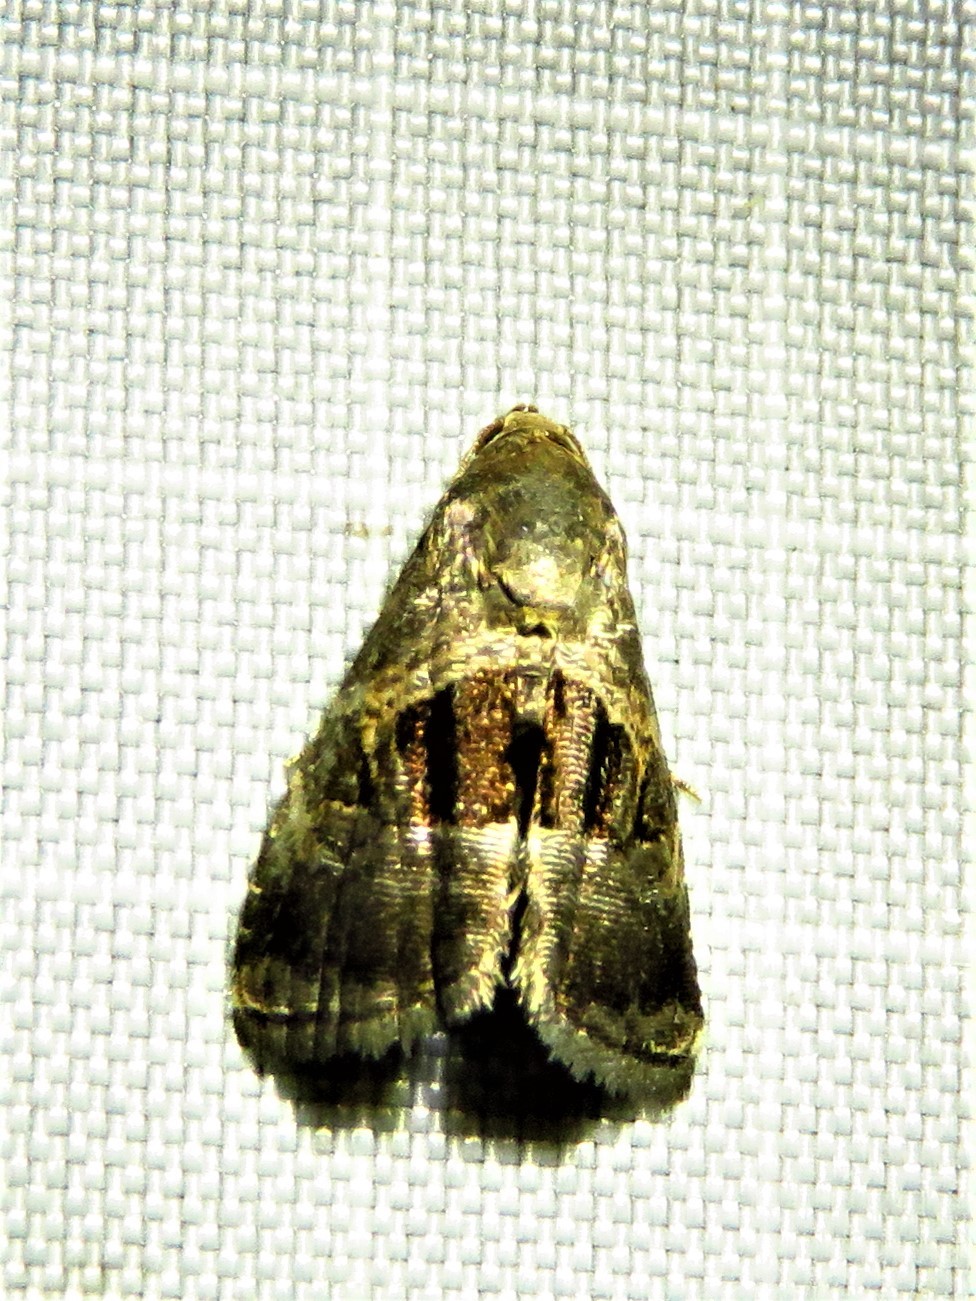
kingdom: Animalia
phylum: Arthropoda
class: Insecta
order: Lepidoptera
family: Noctuidae
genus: Tripudia
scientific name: Tripudia quadrifera
